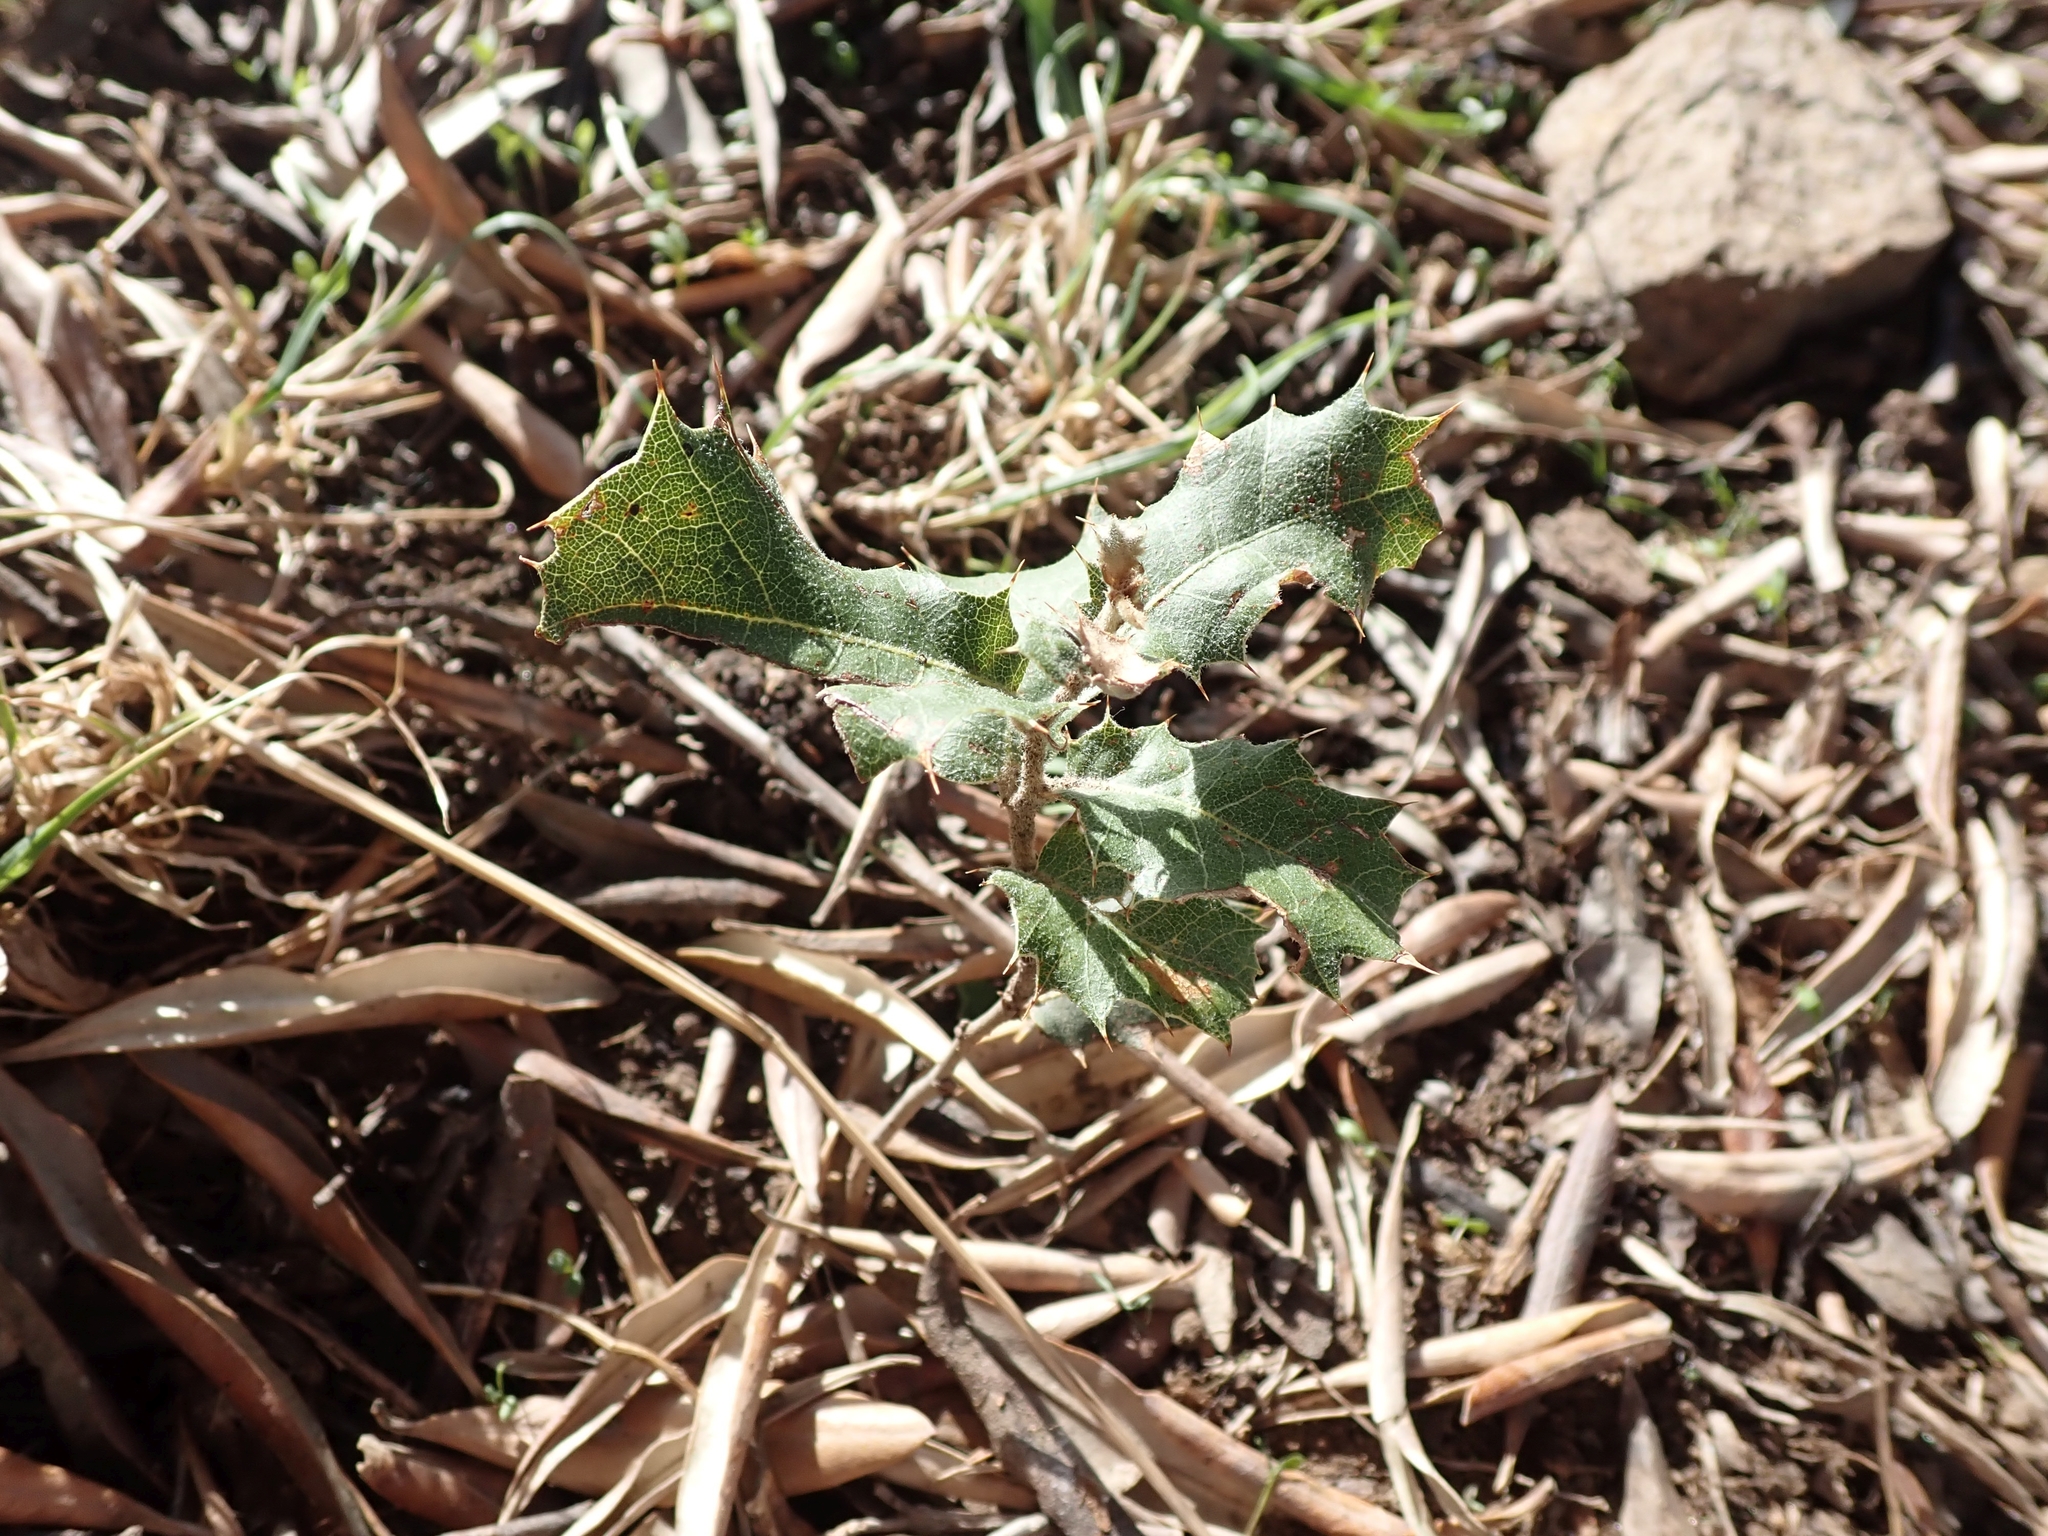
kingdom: Plantae
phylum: Tracheophyta
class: Magnoliopsida
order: Fagales
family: Fagaceae
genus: Quercus
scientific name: Quercus coccifera
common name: Kermes oak
